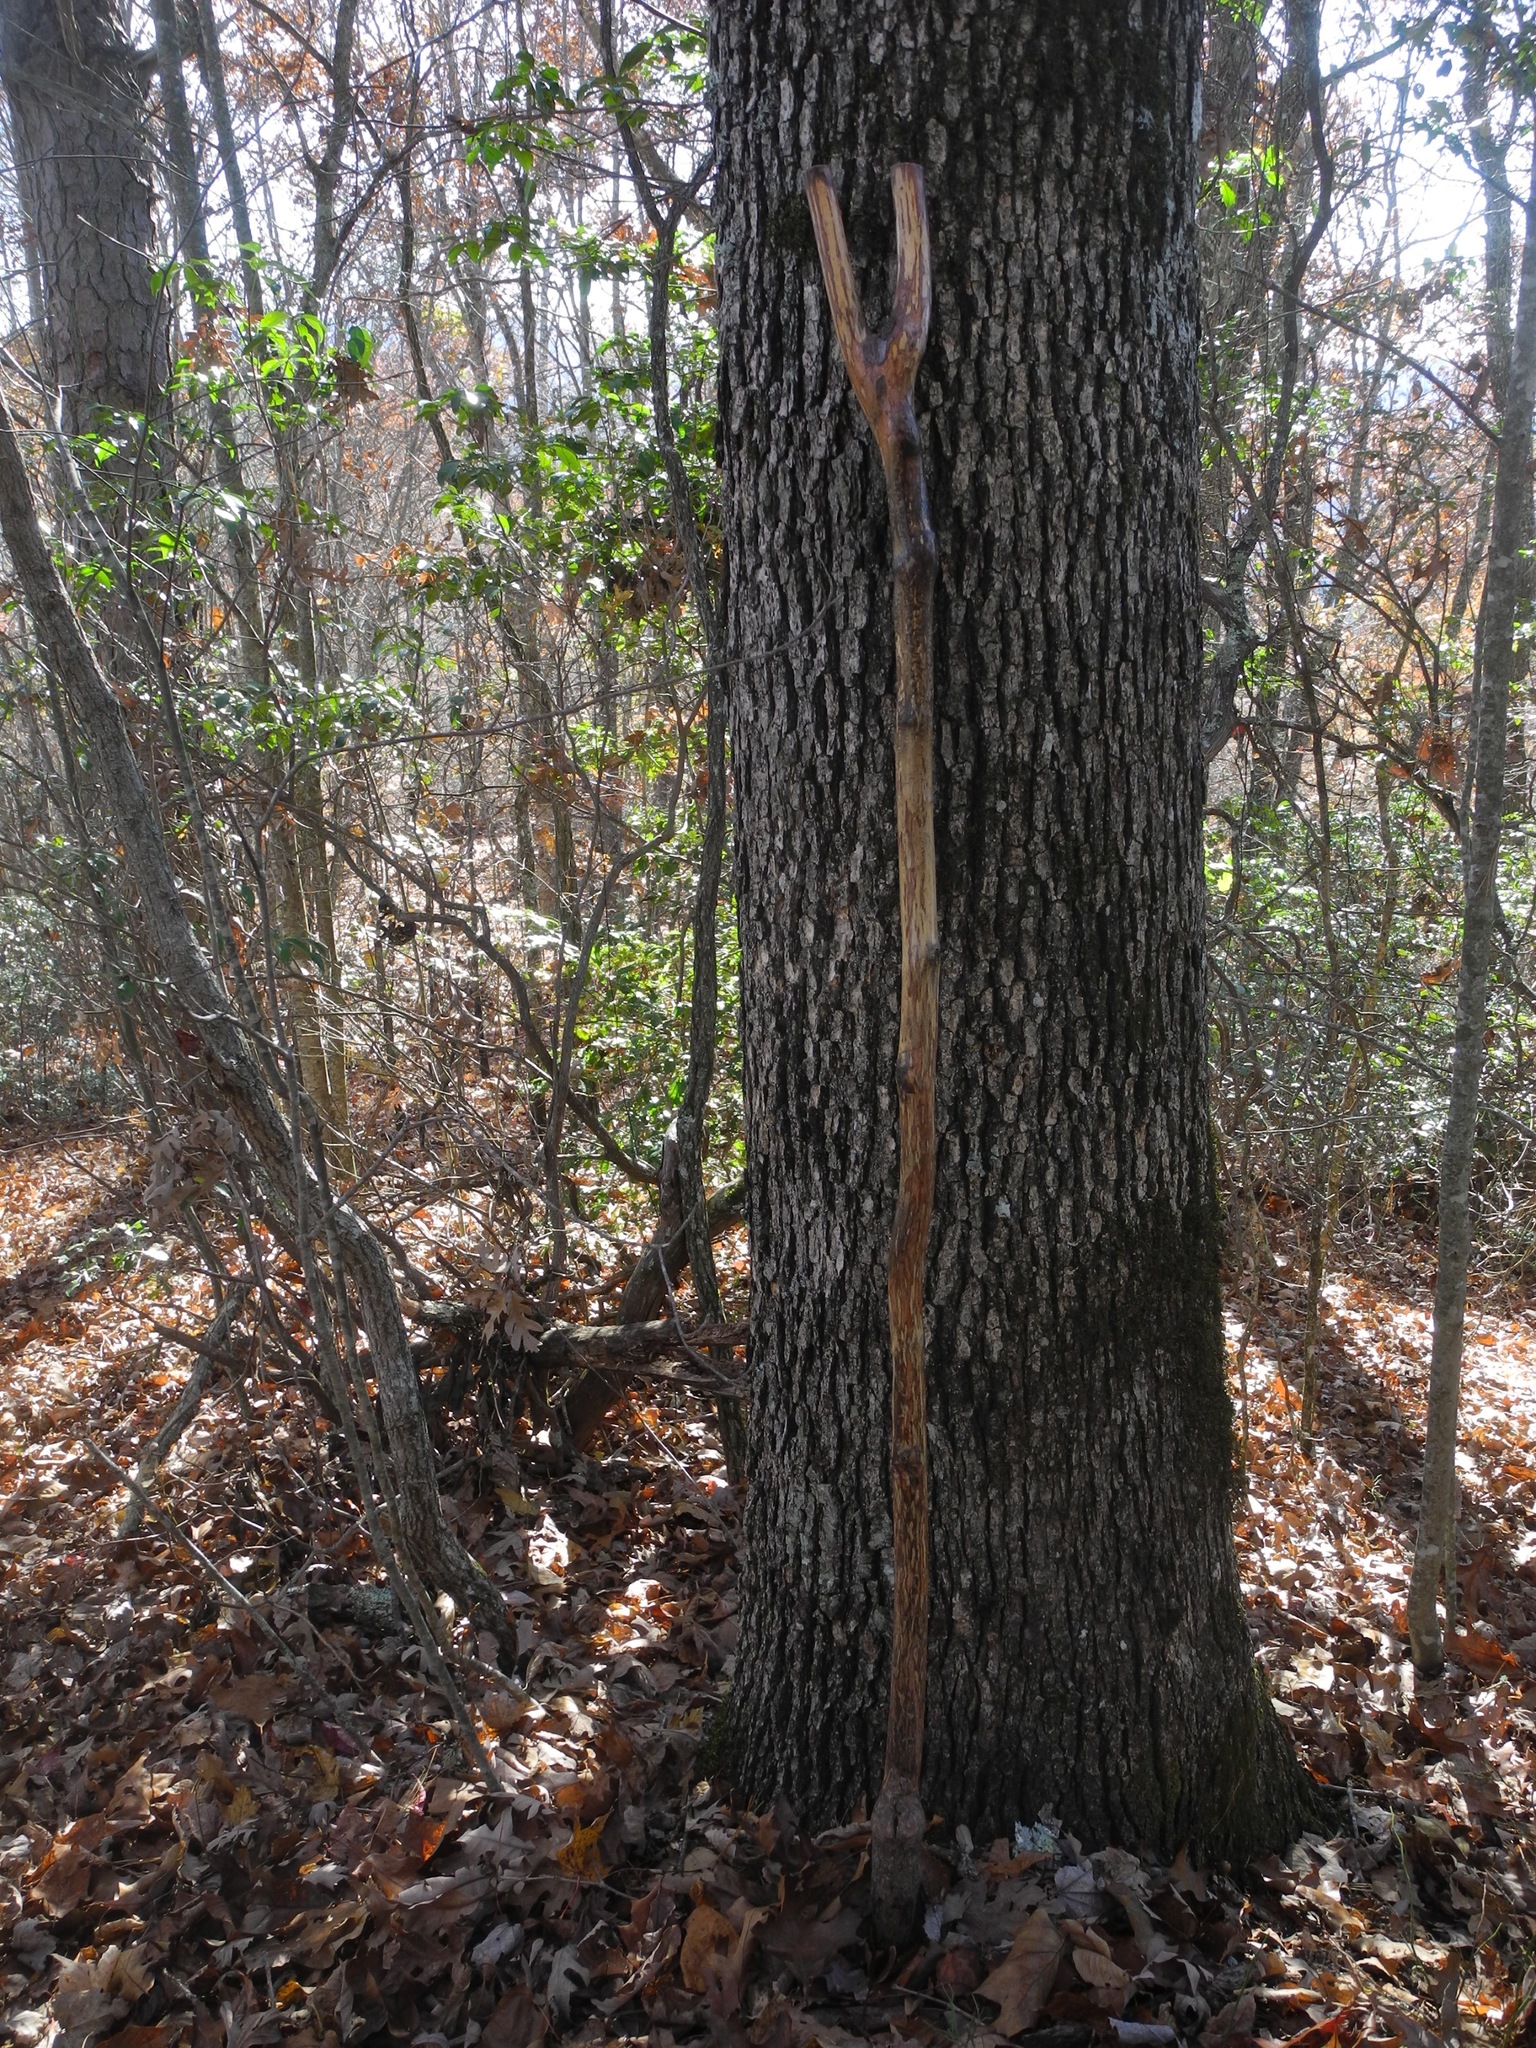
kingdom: Plantae
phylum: Tracheophyta
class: Magnoliopsida
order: Fagales
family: Fagaceae
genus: Quercus
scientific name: Quercus alba
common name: White oak
